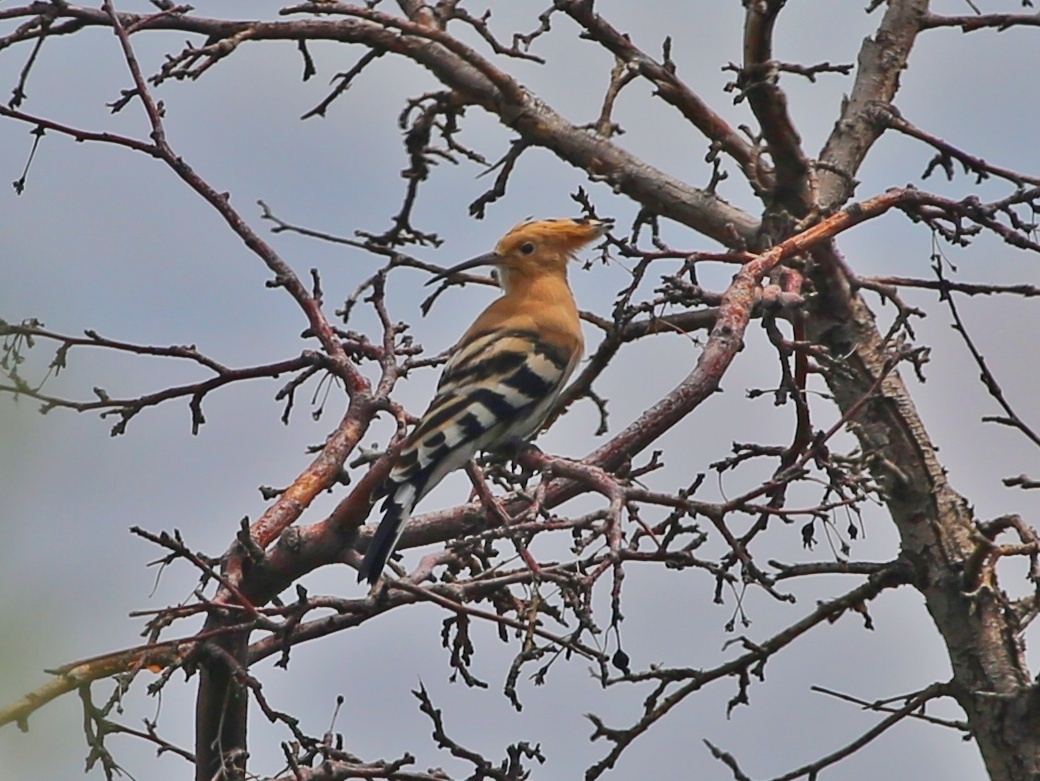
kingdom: Animalia
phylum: Chordata
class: Aves
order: Bucerotiformes
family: Upupidae
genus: Upupa
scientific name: Upupa epops
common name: Eurasian hoopoe
